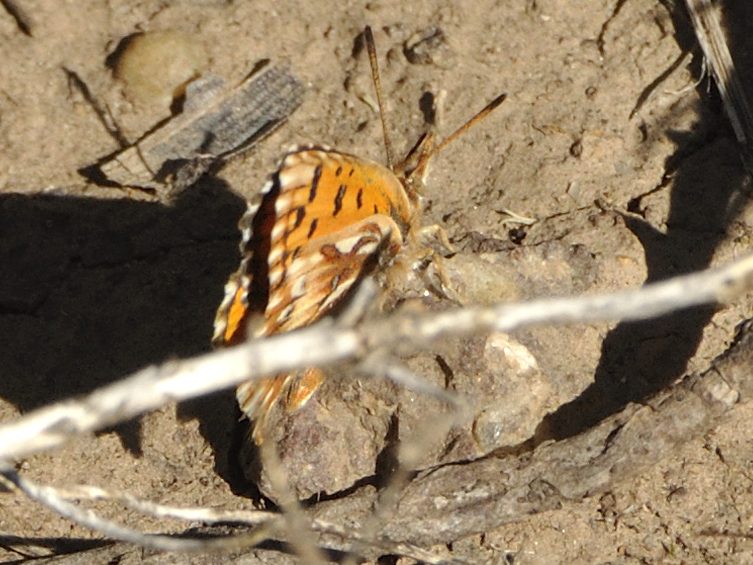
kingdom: Animalia
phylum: Arthropoda
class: Insecta
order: Lepidoptera
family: Lycaenidae
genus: Poecilmitis
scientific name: Poecilmitis pelion
